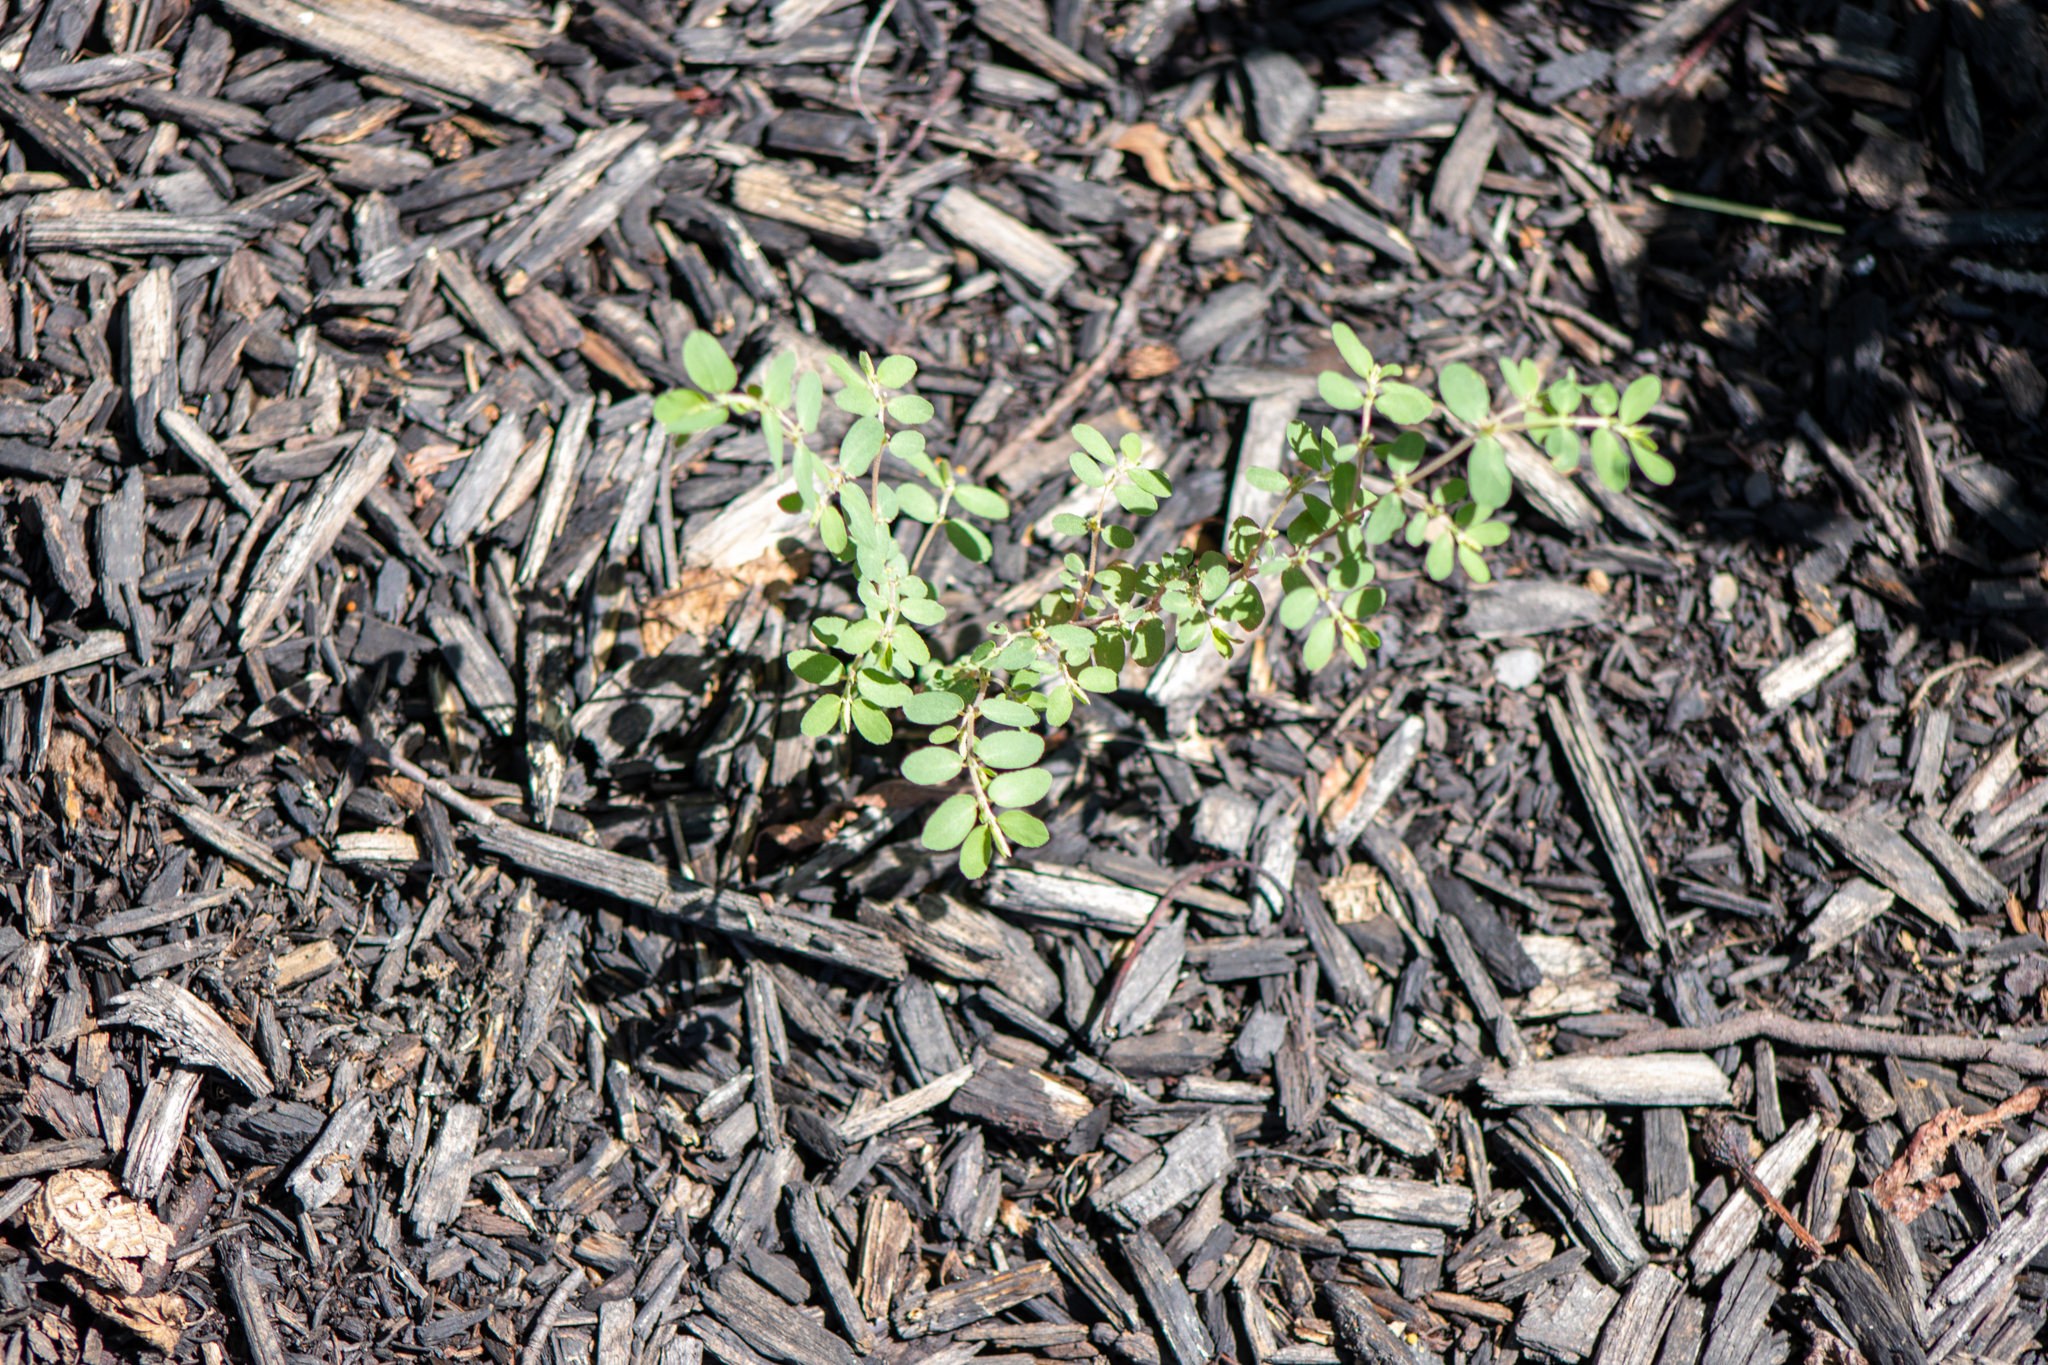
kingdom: Plantae
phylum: Tracheophyta
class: Magnoliopsida
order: Malpighiales
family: Euphorbiaceae
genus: Euphorbia
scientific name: Euphorbia prostrata
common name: Prostrate sandmat
